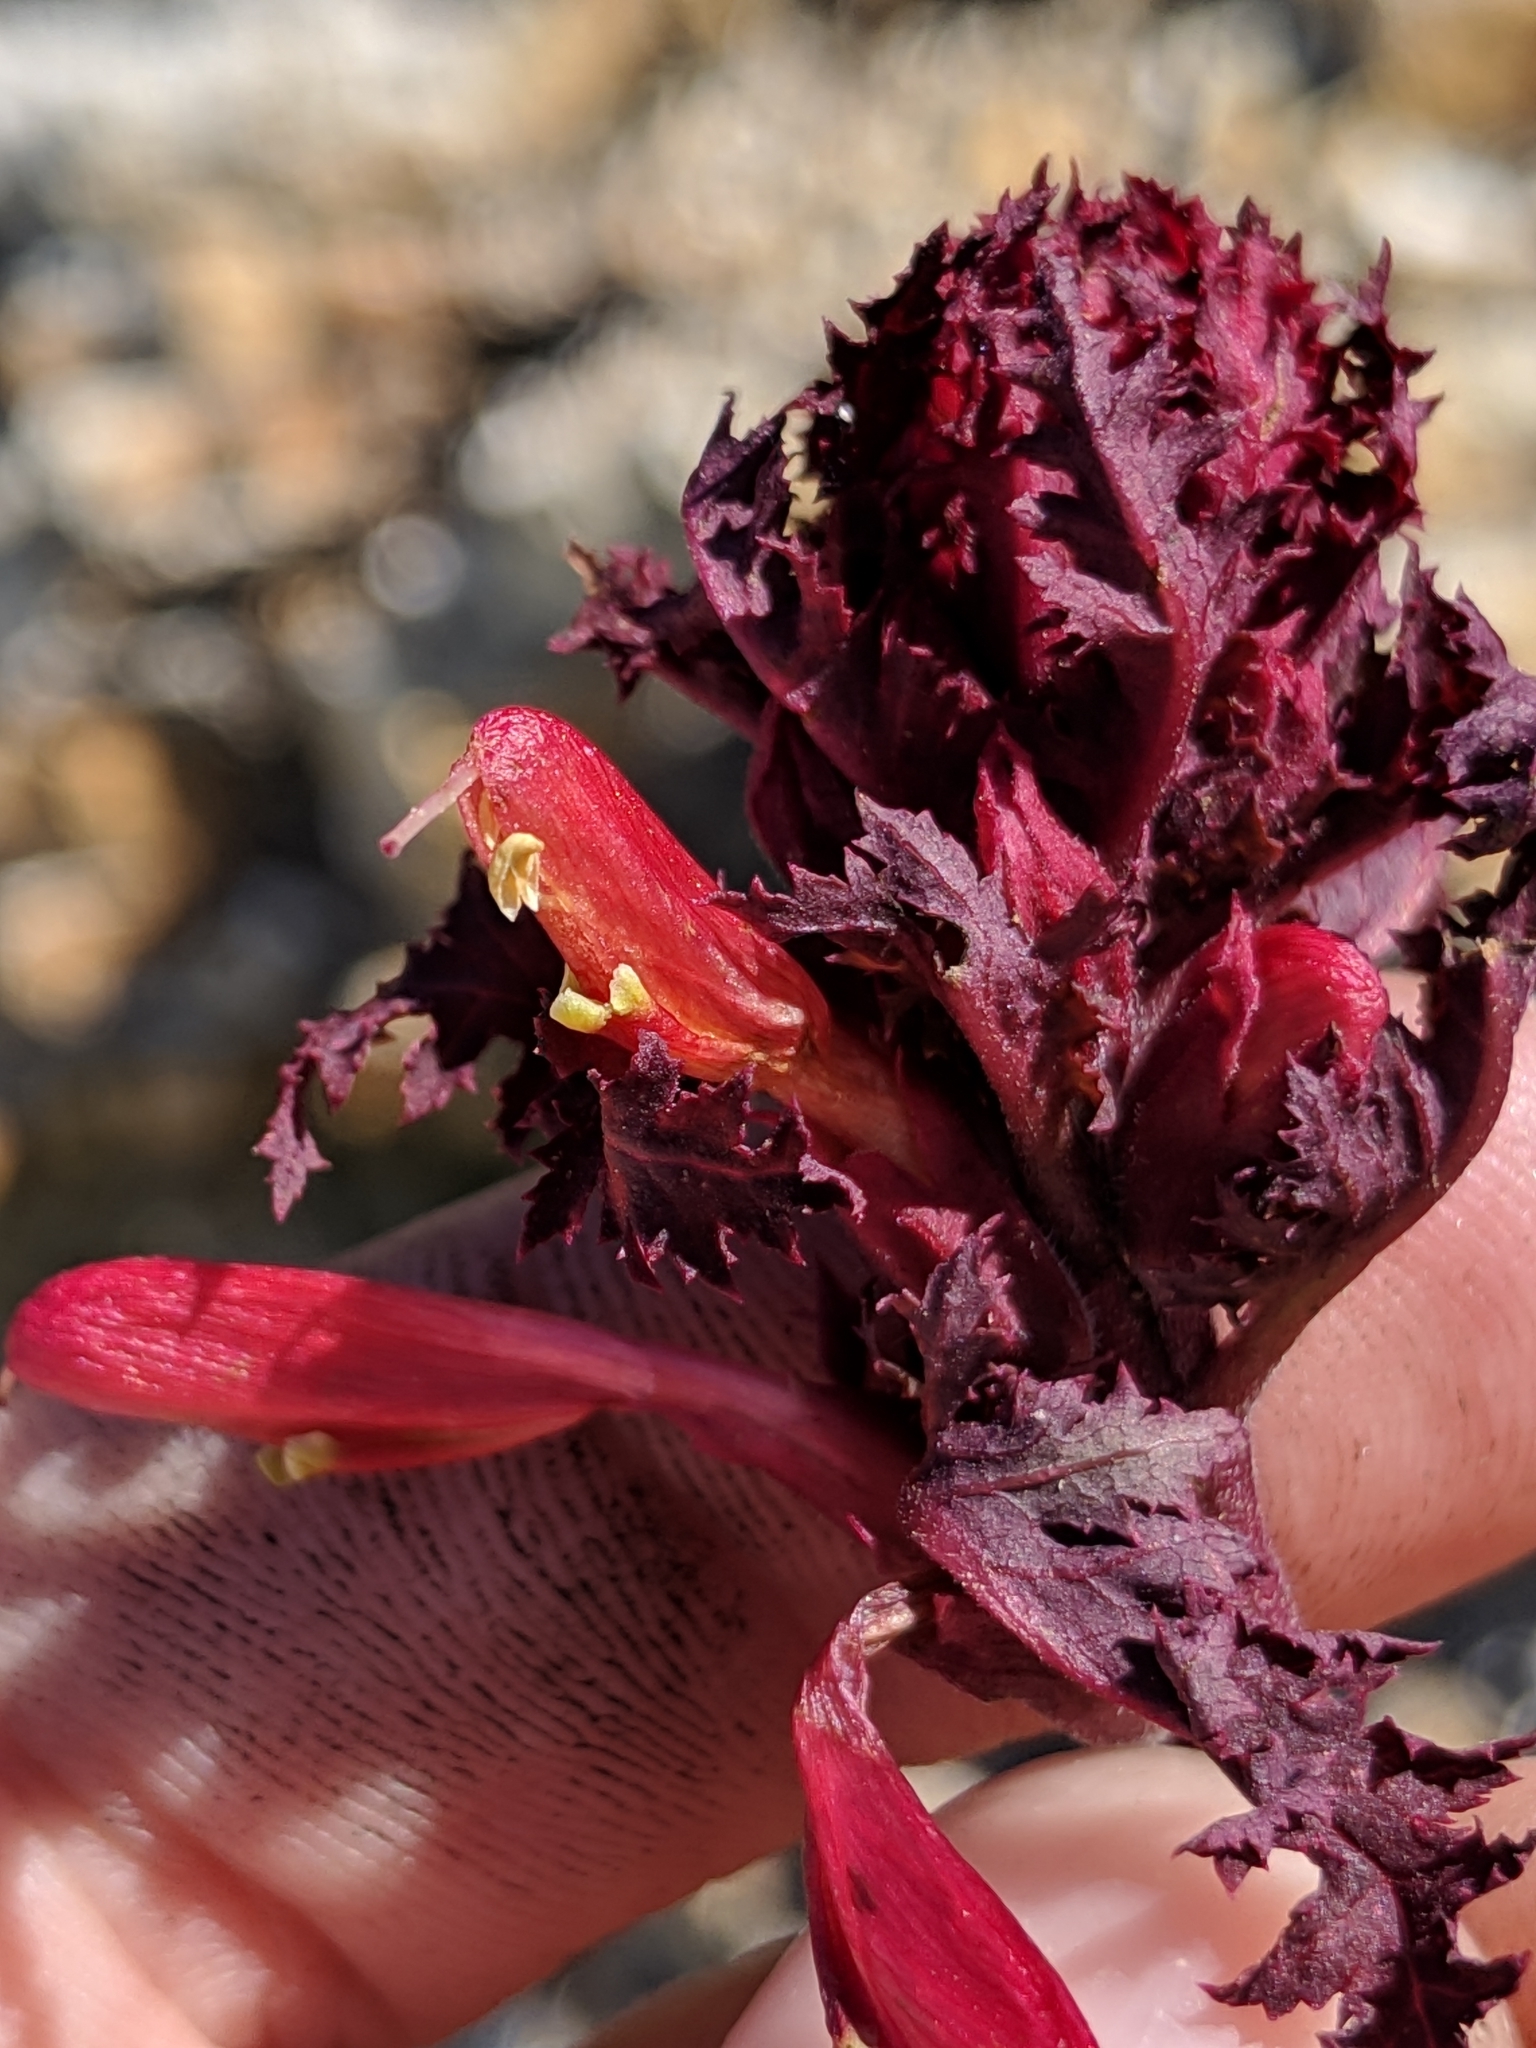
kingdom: Plantae
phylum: Tracheophyta
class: Magnoliopsida
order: Lamiales
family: Orobanchaceae
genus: Pedicularis
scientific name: Pedicularis densiflora
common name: Indian warrior
